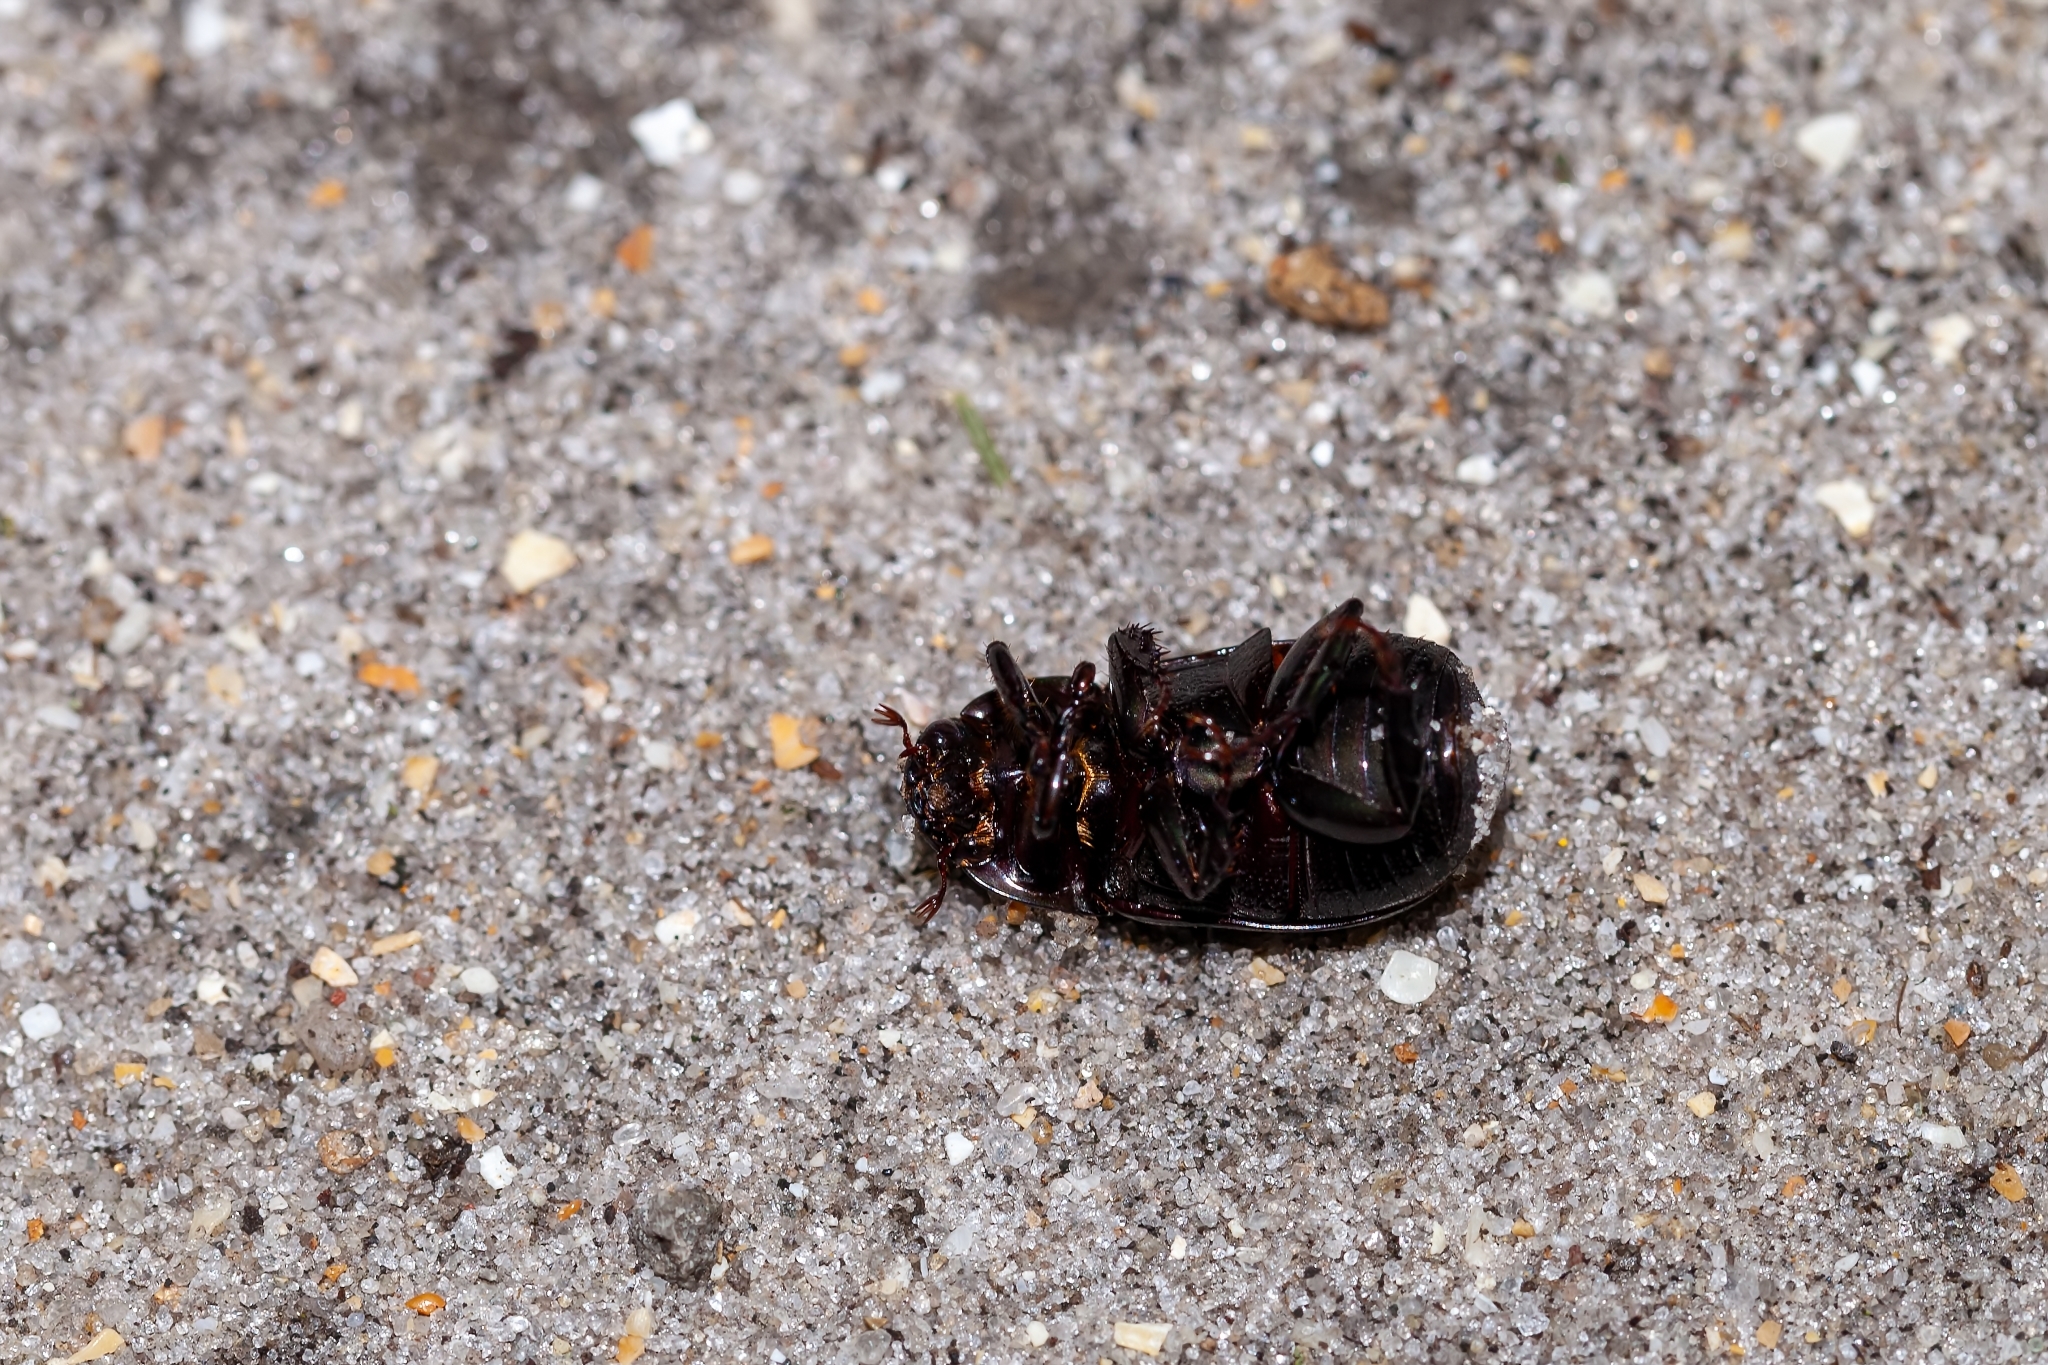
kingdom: Animalia
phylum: Arthropoda
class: Insecta
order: Coleoptera
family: Scarabaeidae
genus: Dyscinetus
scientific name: Dyscinetus morator
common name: Rice beetle
